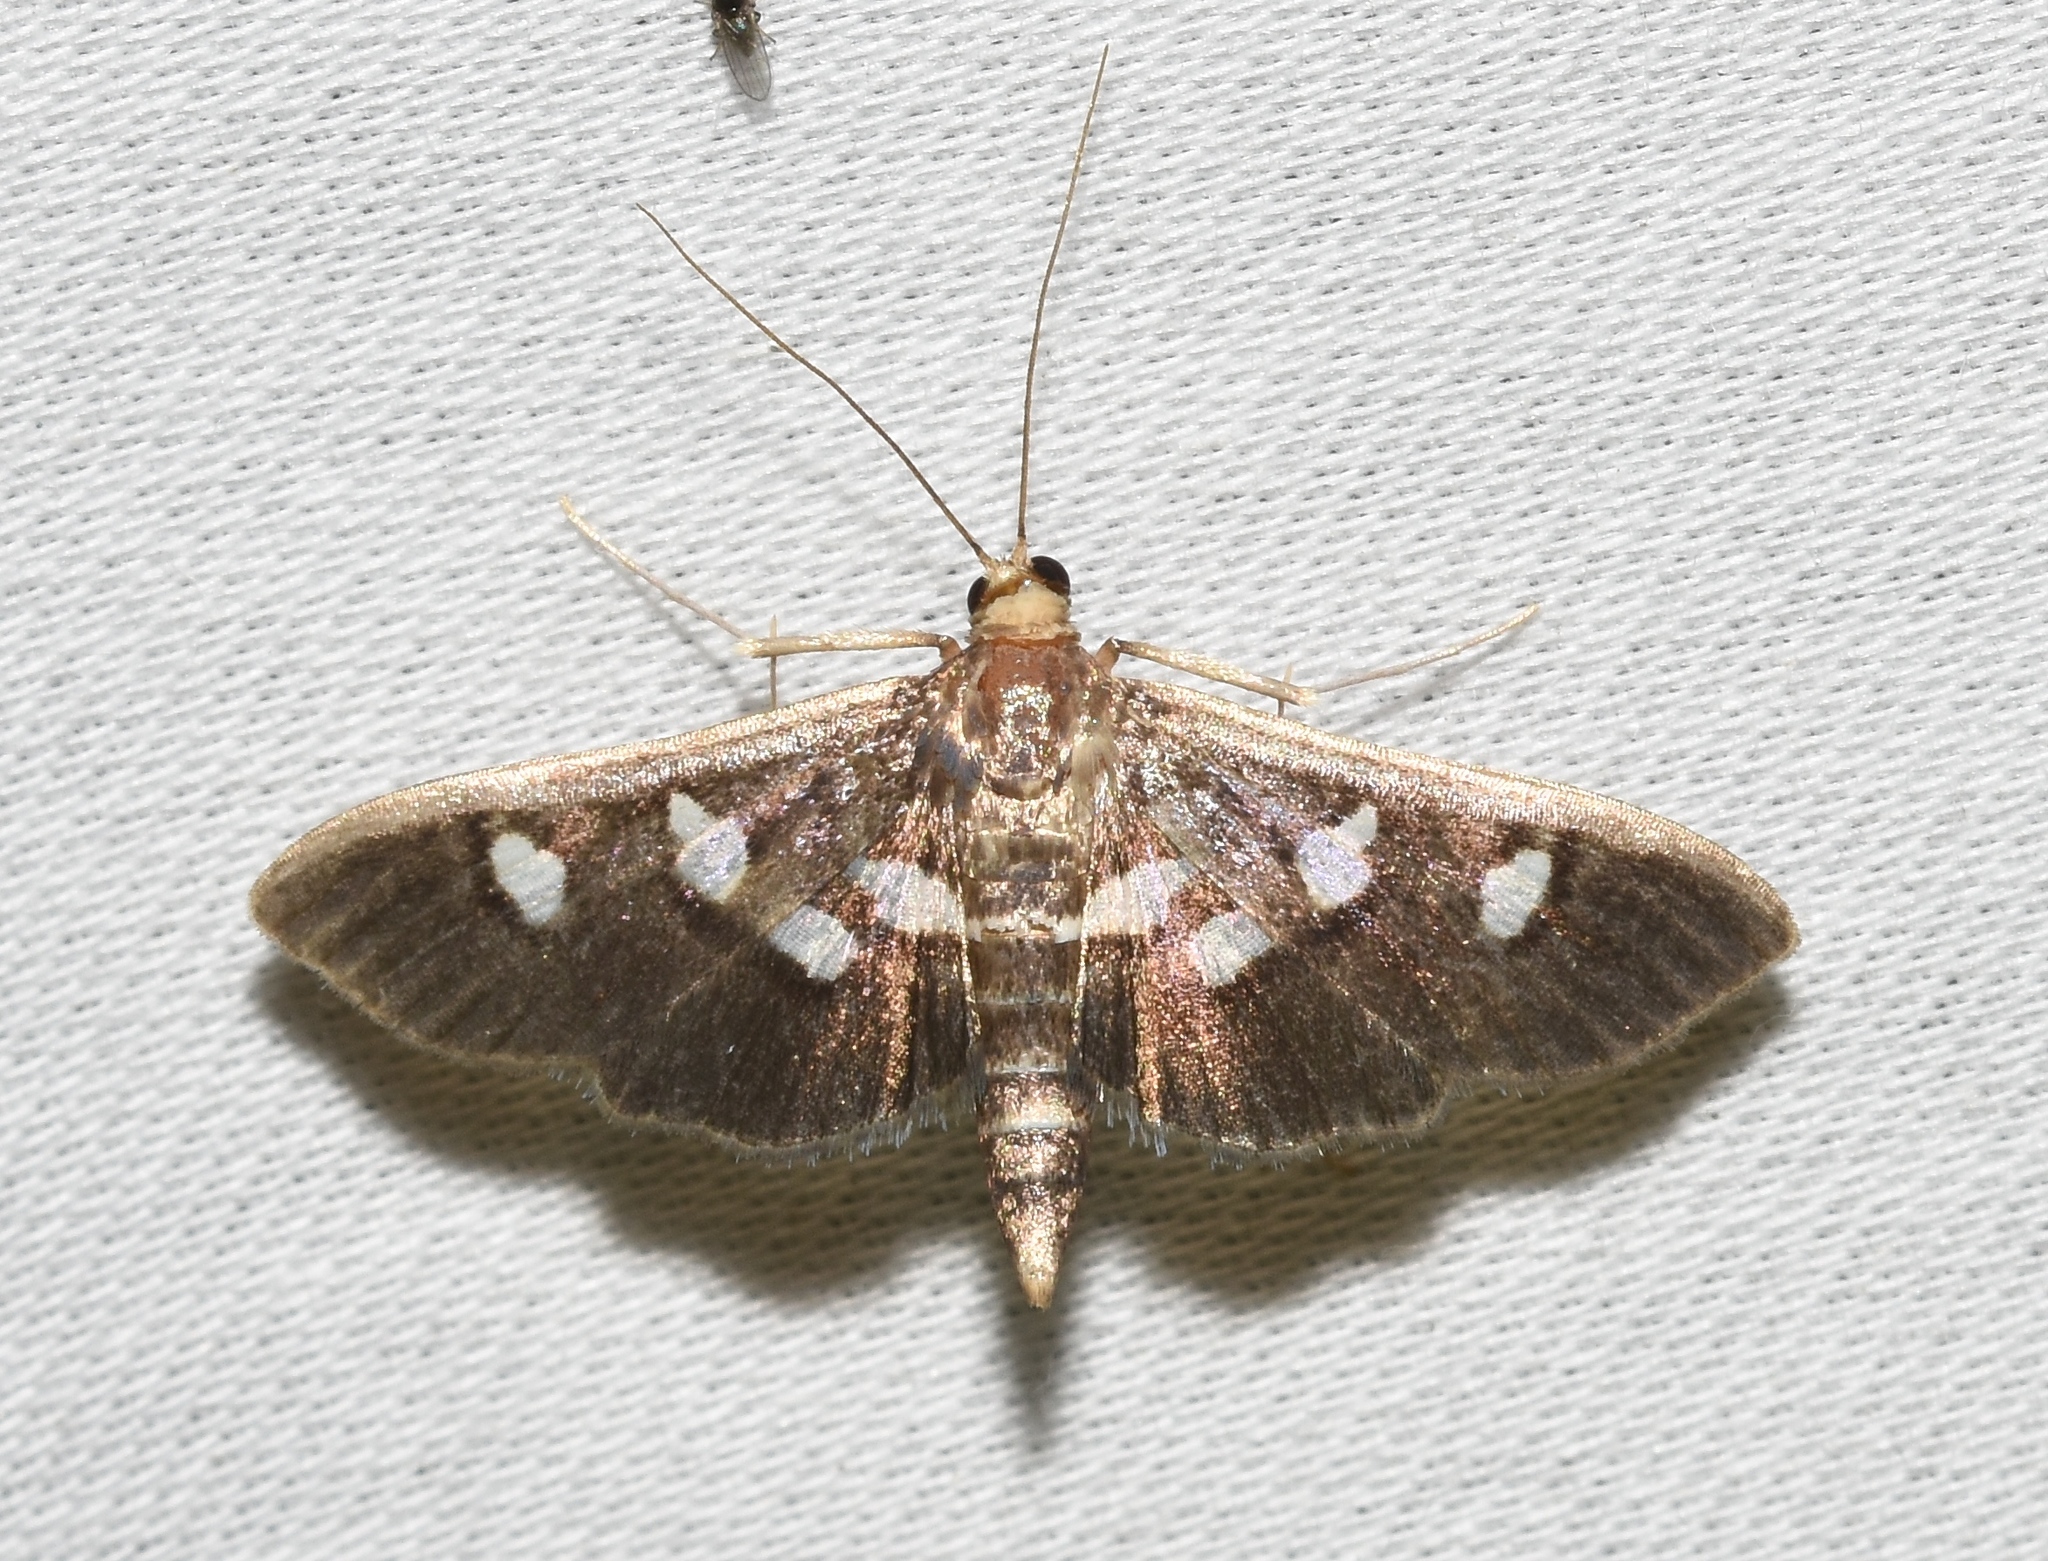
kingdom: Animalia
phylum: Arthropoda
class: Insecta
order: Lepidoptera
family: Crambidae
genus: Desmia
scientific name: Desmia funeralis
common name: Grape leaf folder moth
